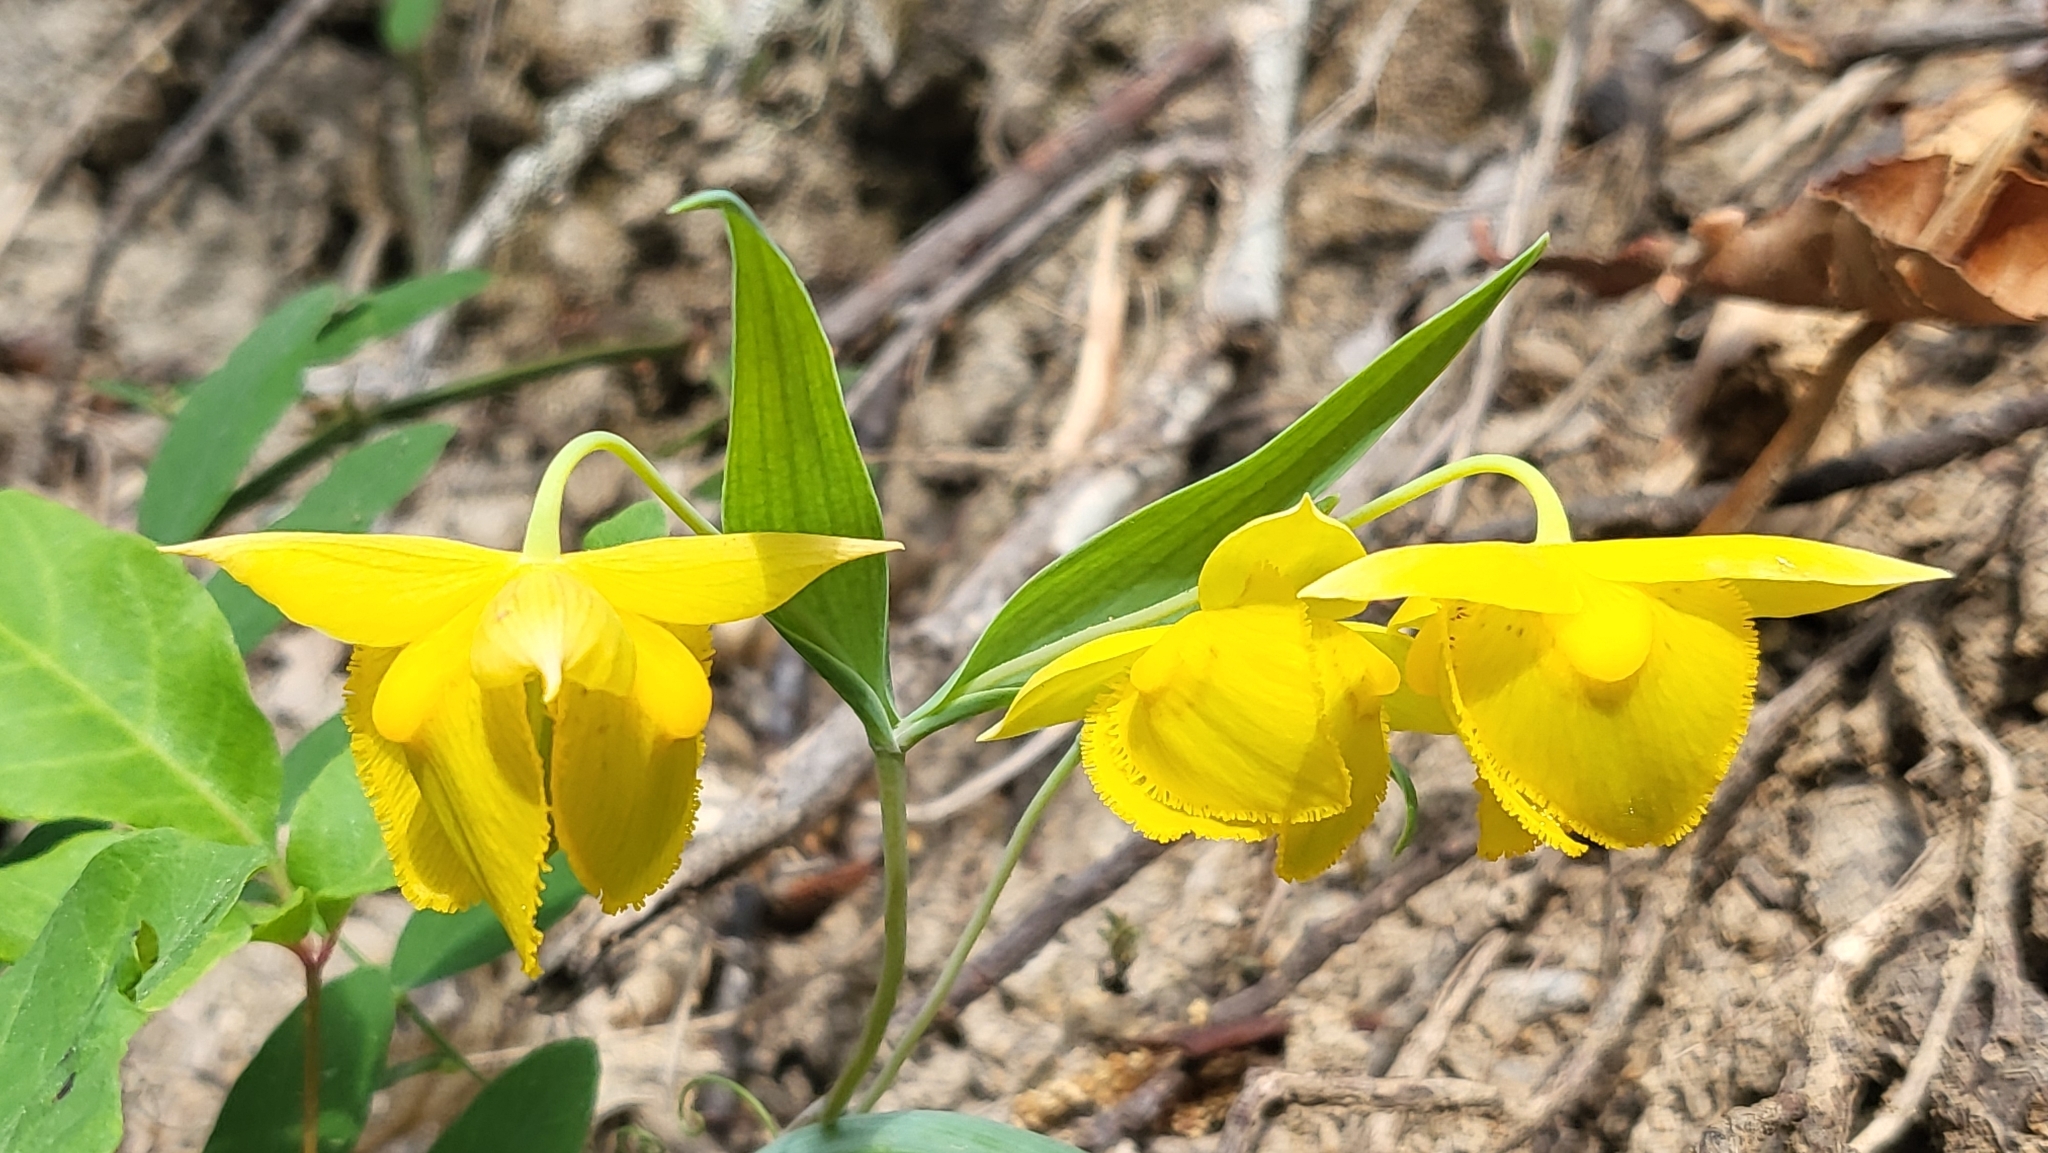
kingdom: Plantae
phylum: Tracheophyta
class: Liliopsida
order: Liliales
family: Liliaceae
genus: Calochortus
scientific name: Calochortus amabilis
